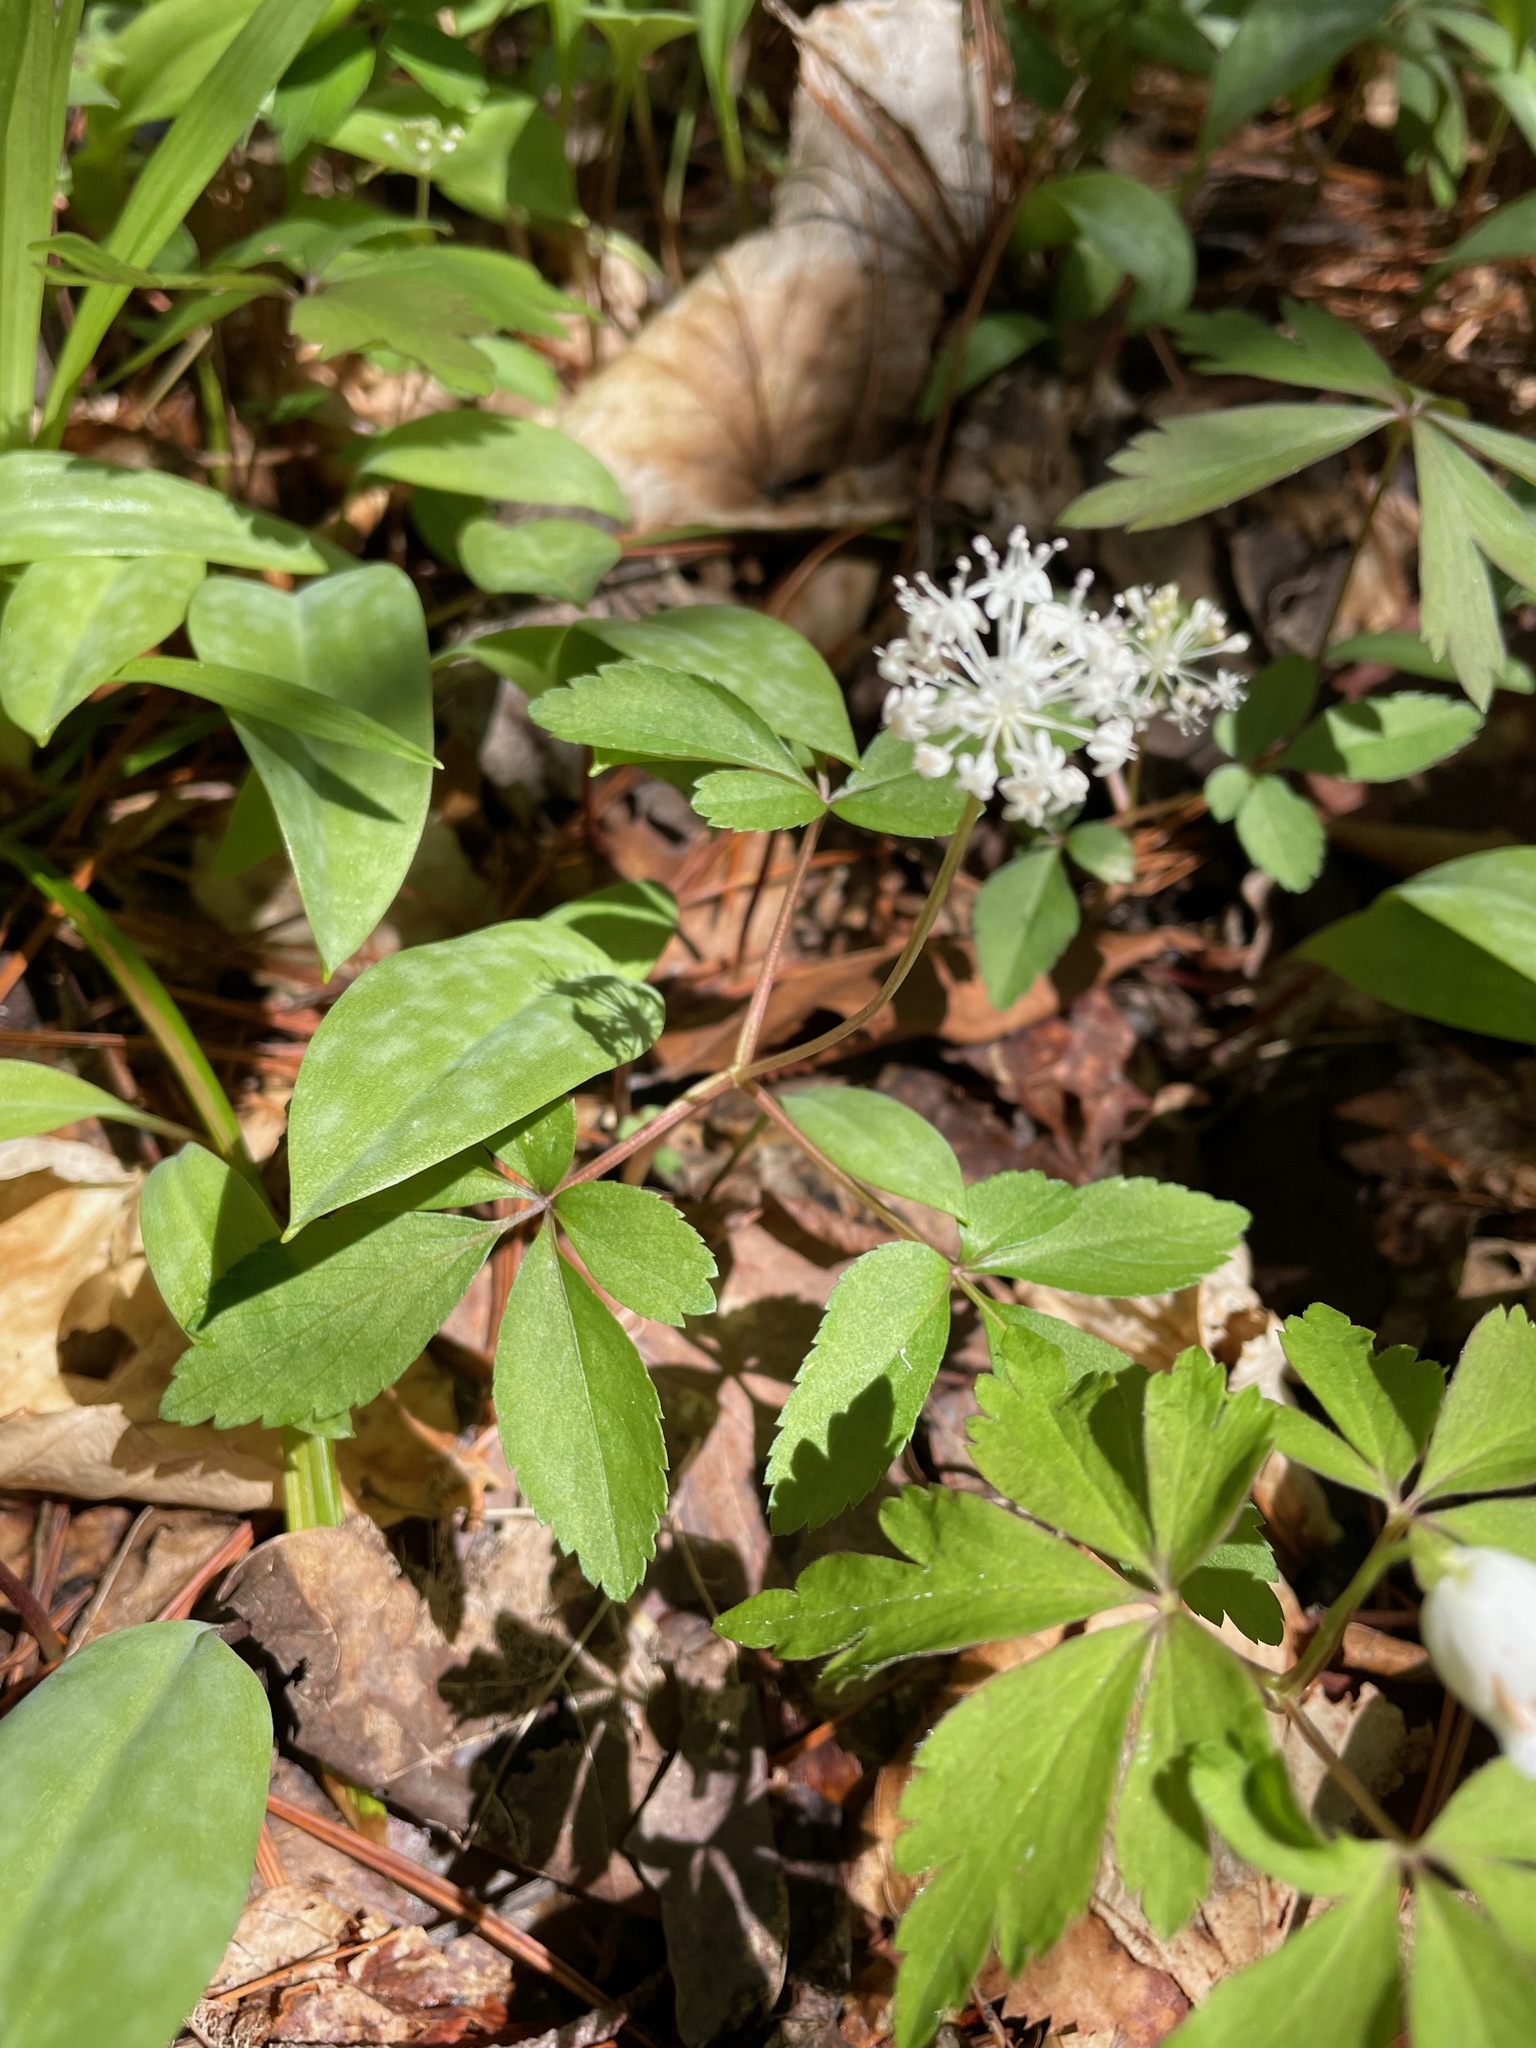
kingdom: Plantae
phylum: Tracheophyta
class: Magnoliopsida
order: Apiales
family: Araliaceae
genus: Panax
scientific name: Panax trifolius
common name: Dwarf ginseng
